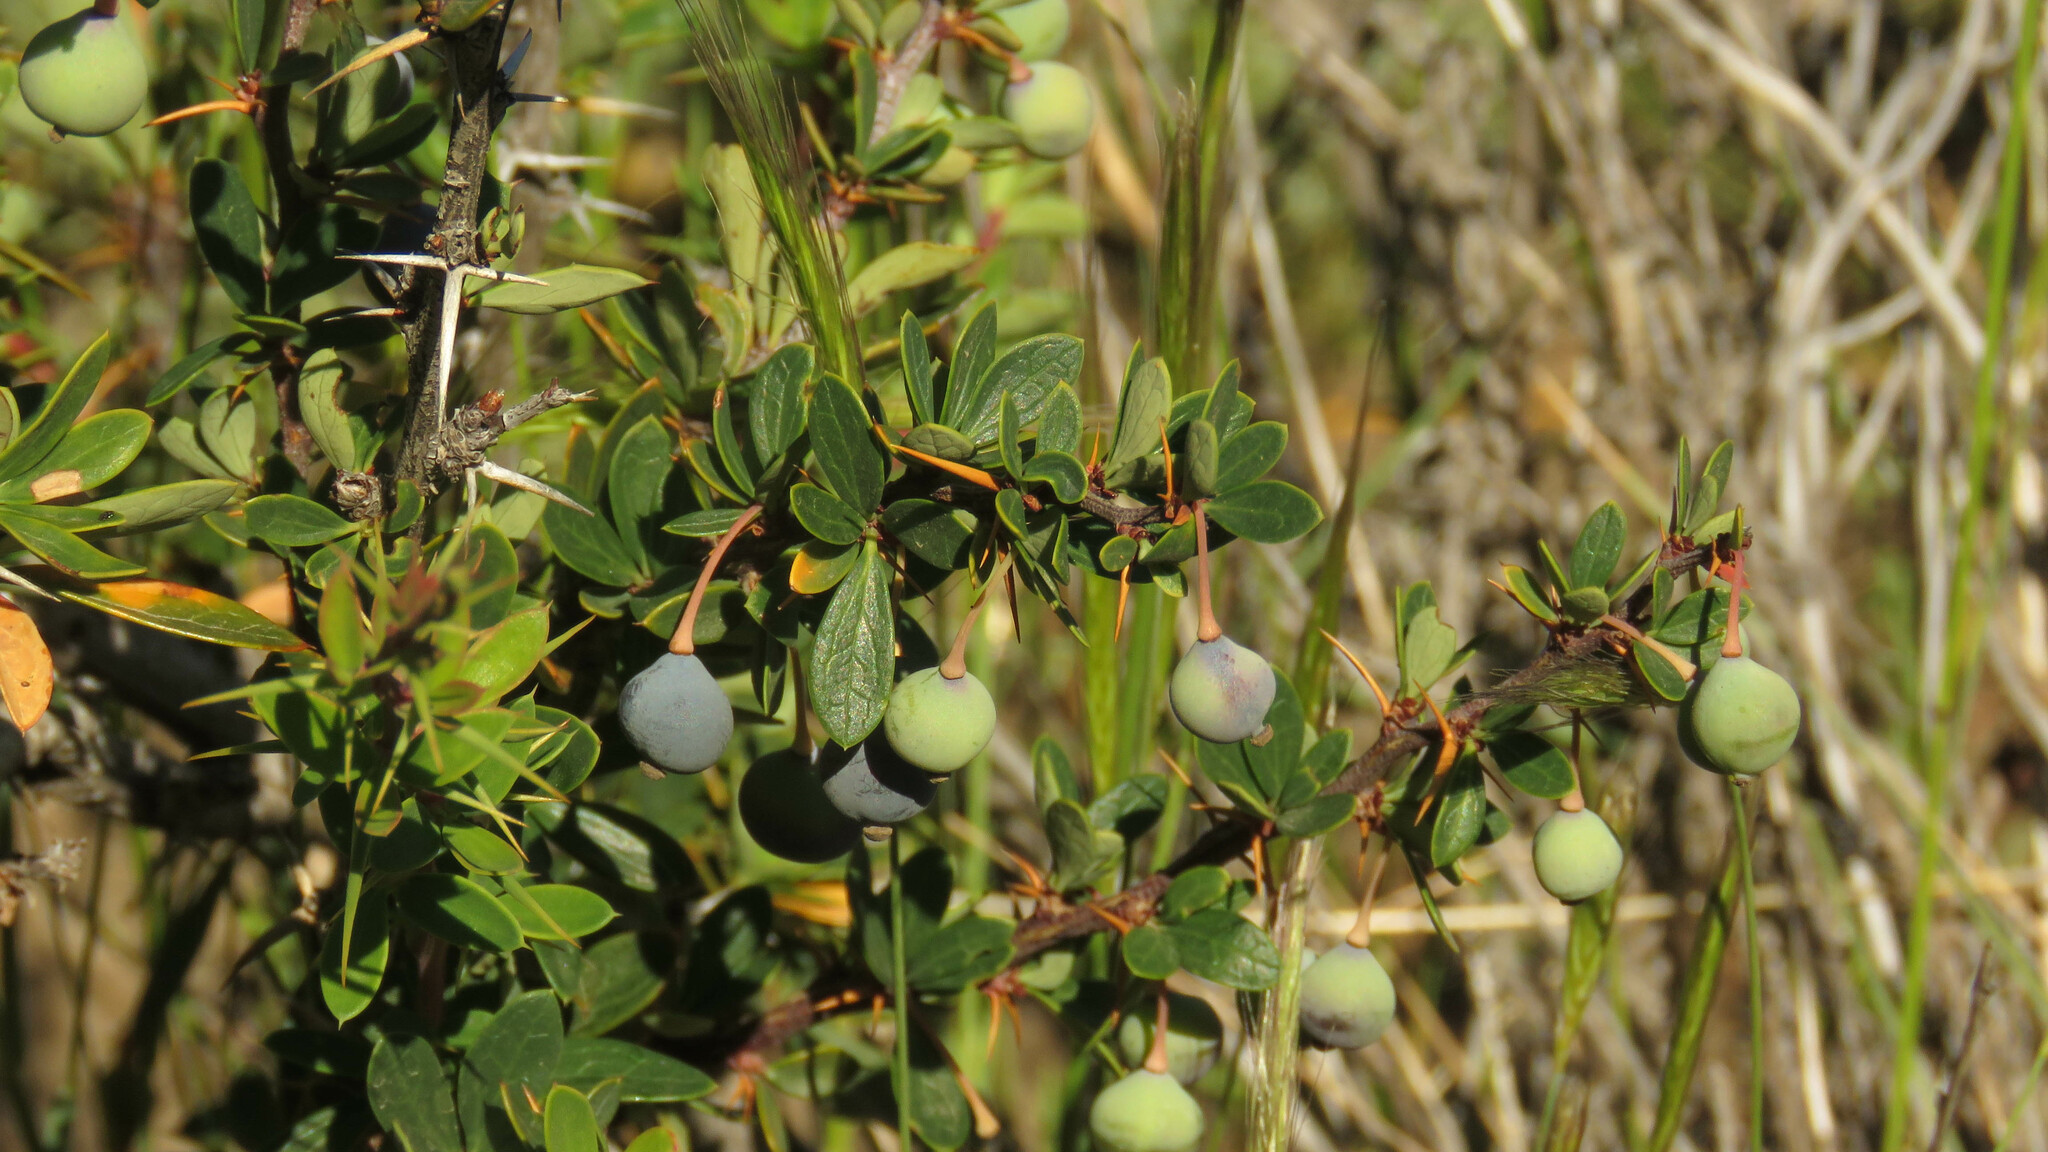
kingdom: Plantae
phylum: Tracheophyta
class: Magnoliopsida
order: Ranunculales
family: Berberidaceae
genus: Berberis
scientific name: Berberis microphylla
